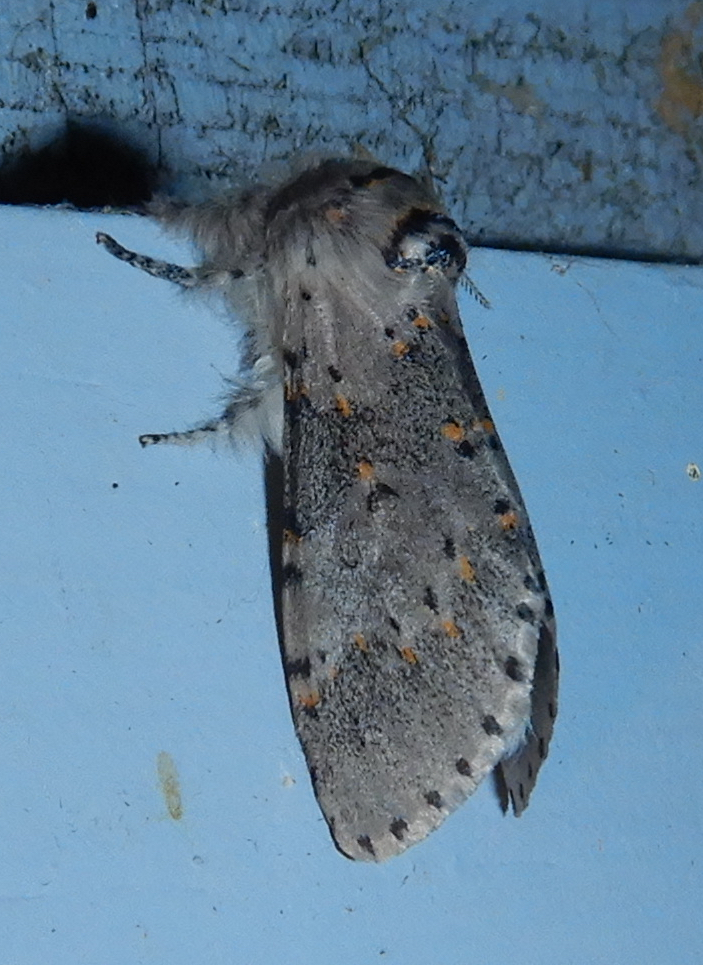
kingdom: Animalia
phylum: Arthropoda
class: Insecta
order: Lepidoptera
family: Notodontidae
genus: Furcula
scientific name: Furcula cinerea
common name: Gray furcula
